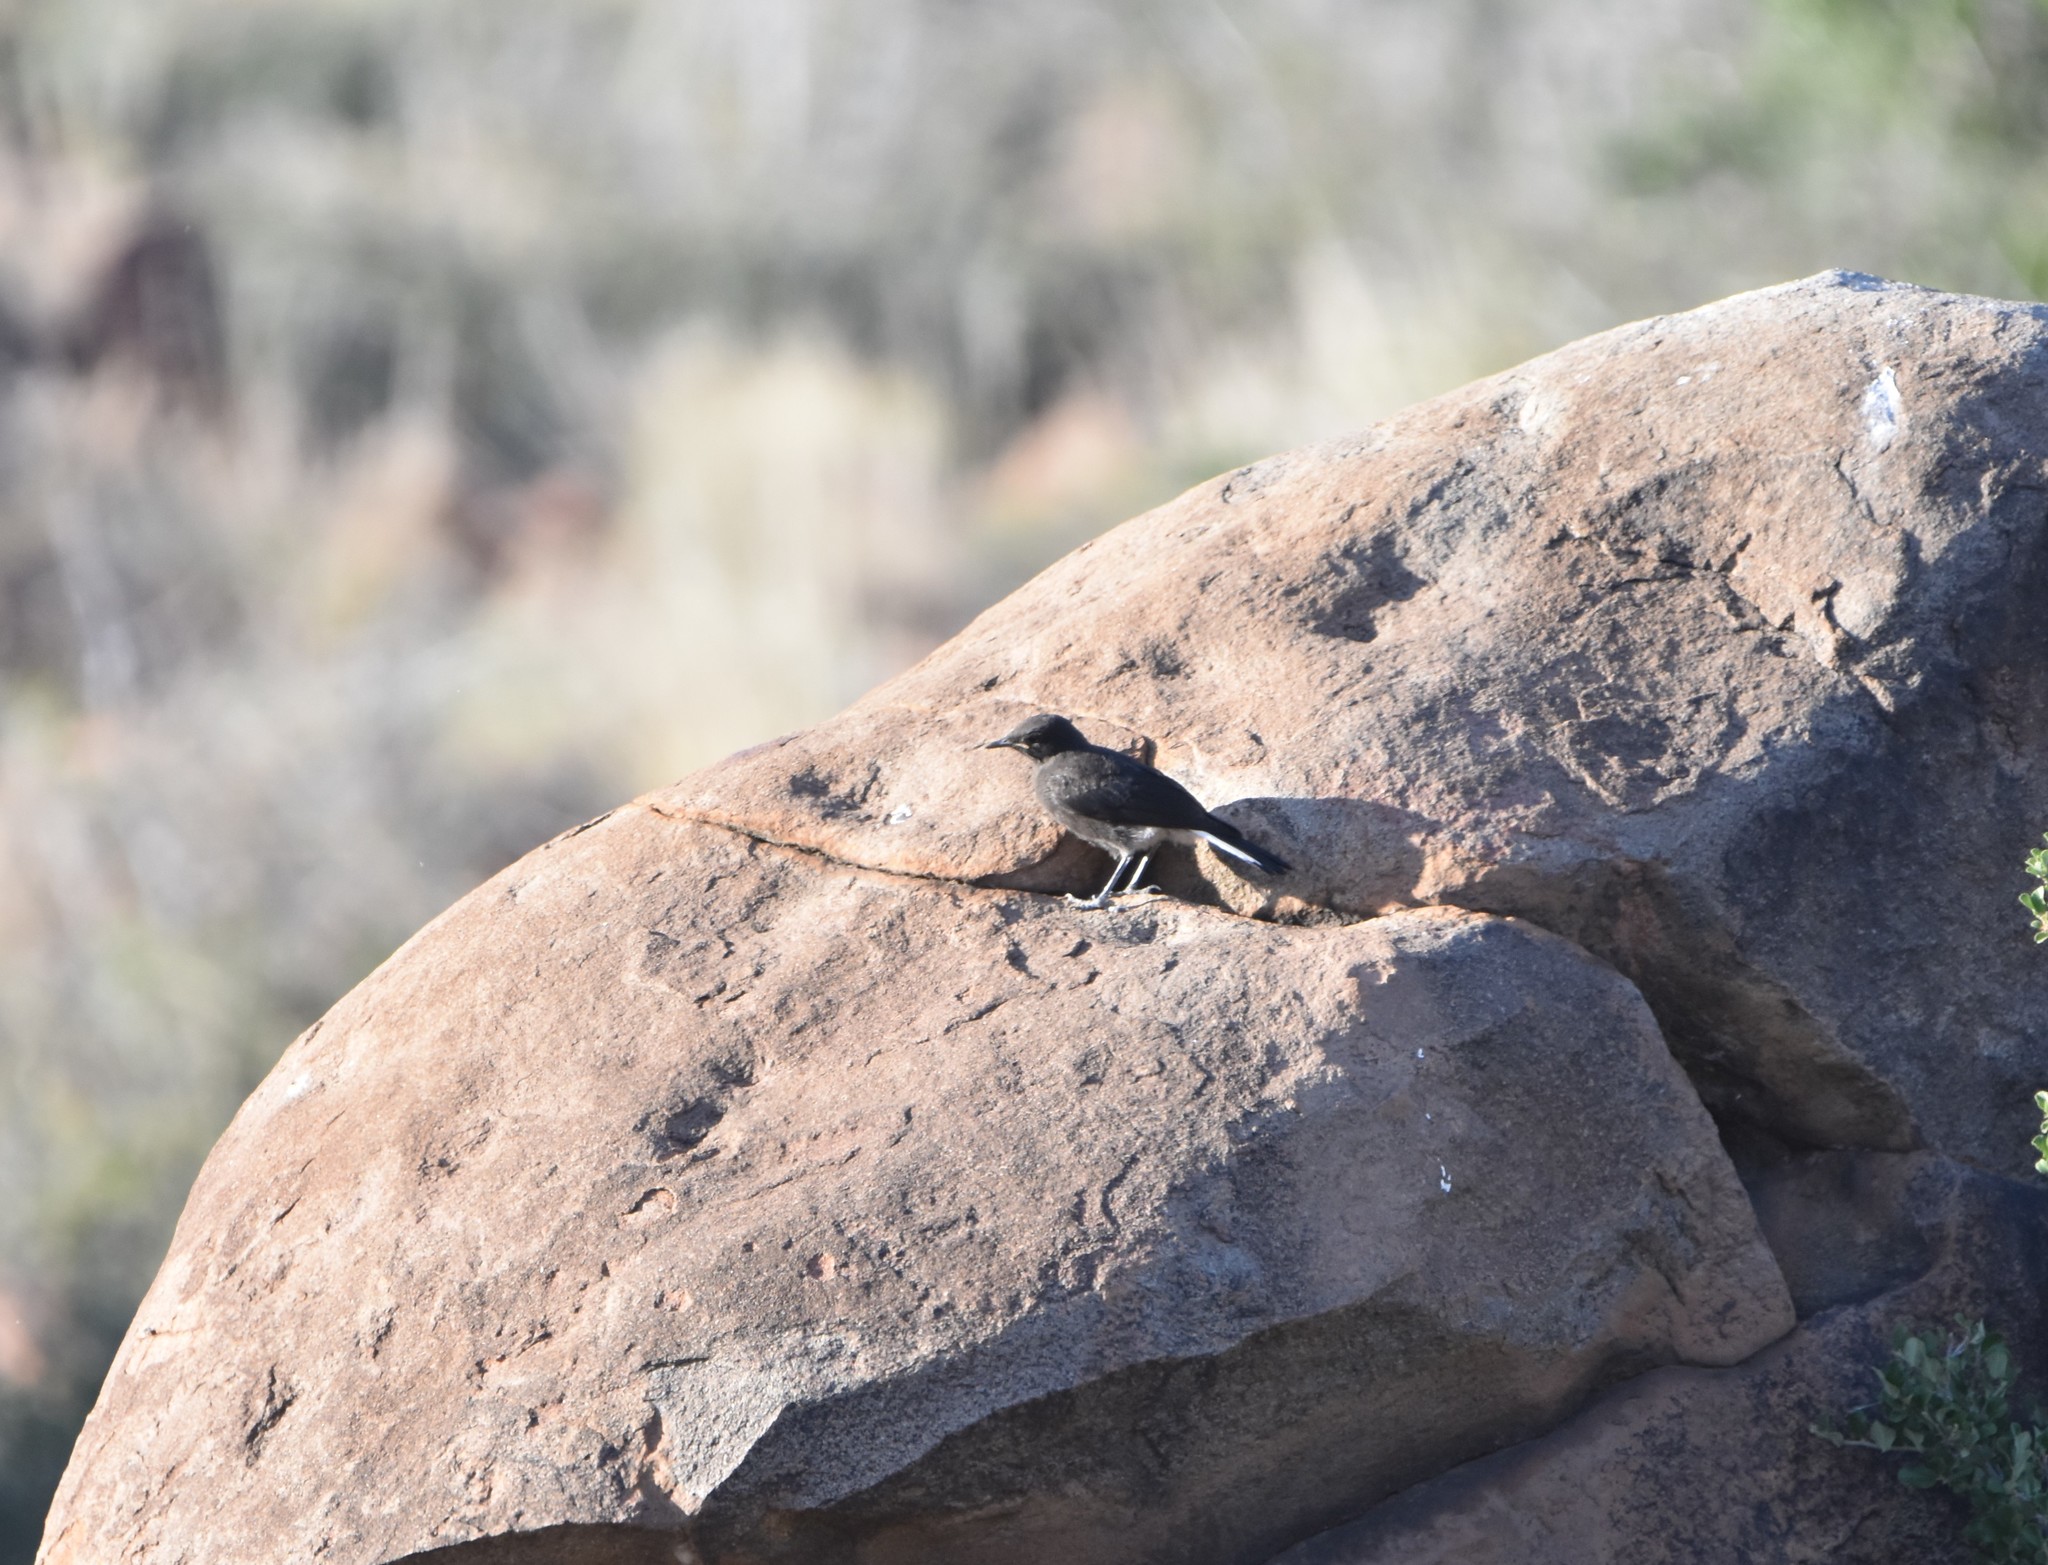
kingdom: Animalia
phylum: Chordata
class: Aves
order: Passeriformes
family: Muscicapidae
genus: Oenanthe
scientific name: Oenanthe monticola
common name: Mountain wheatear
